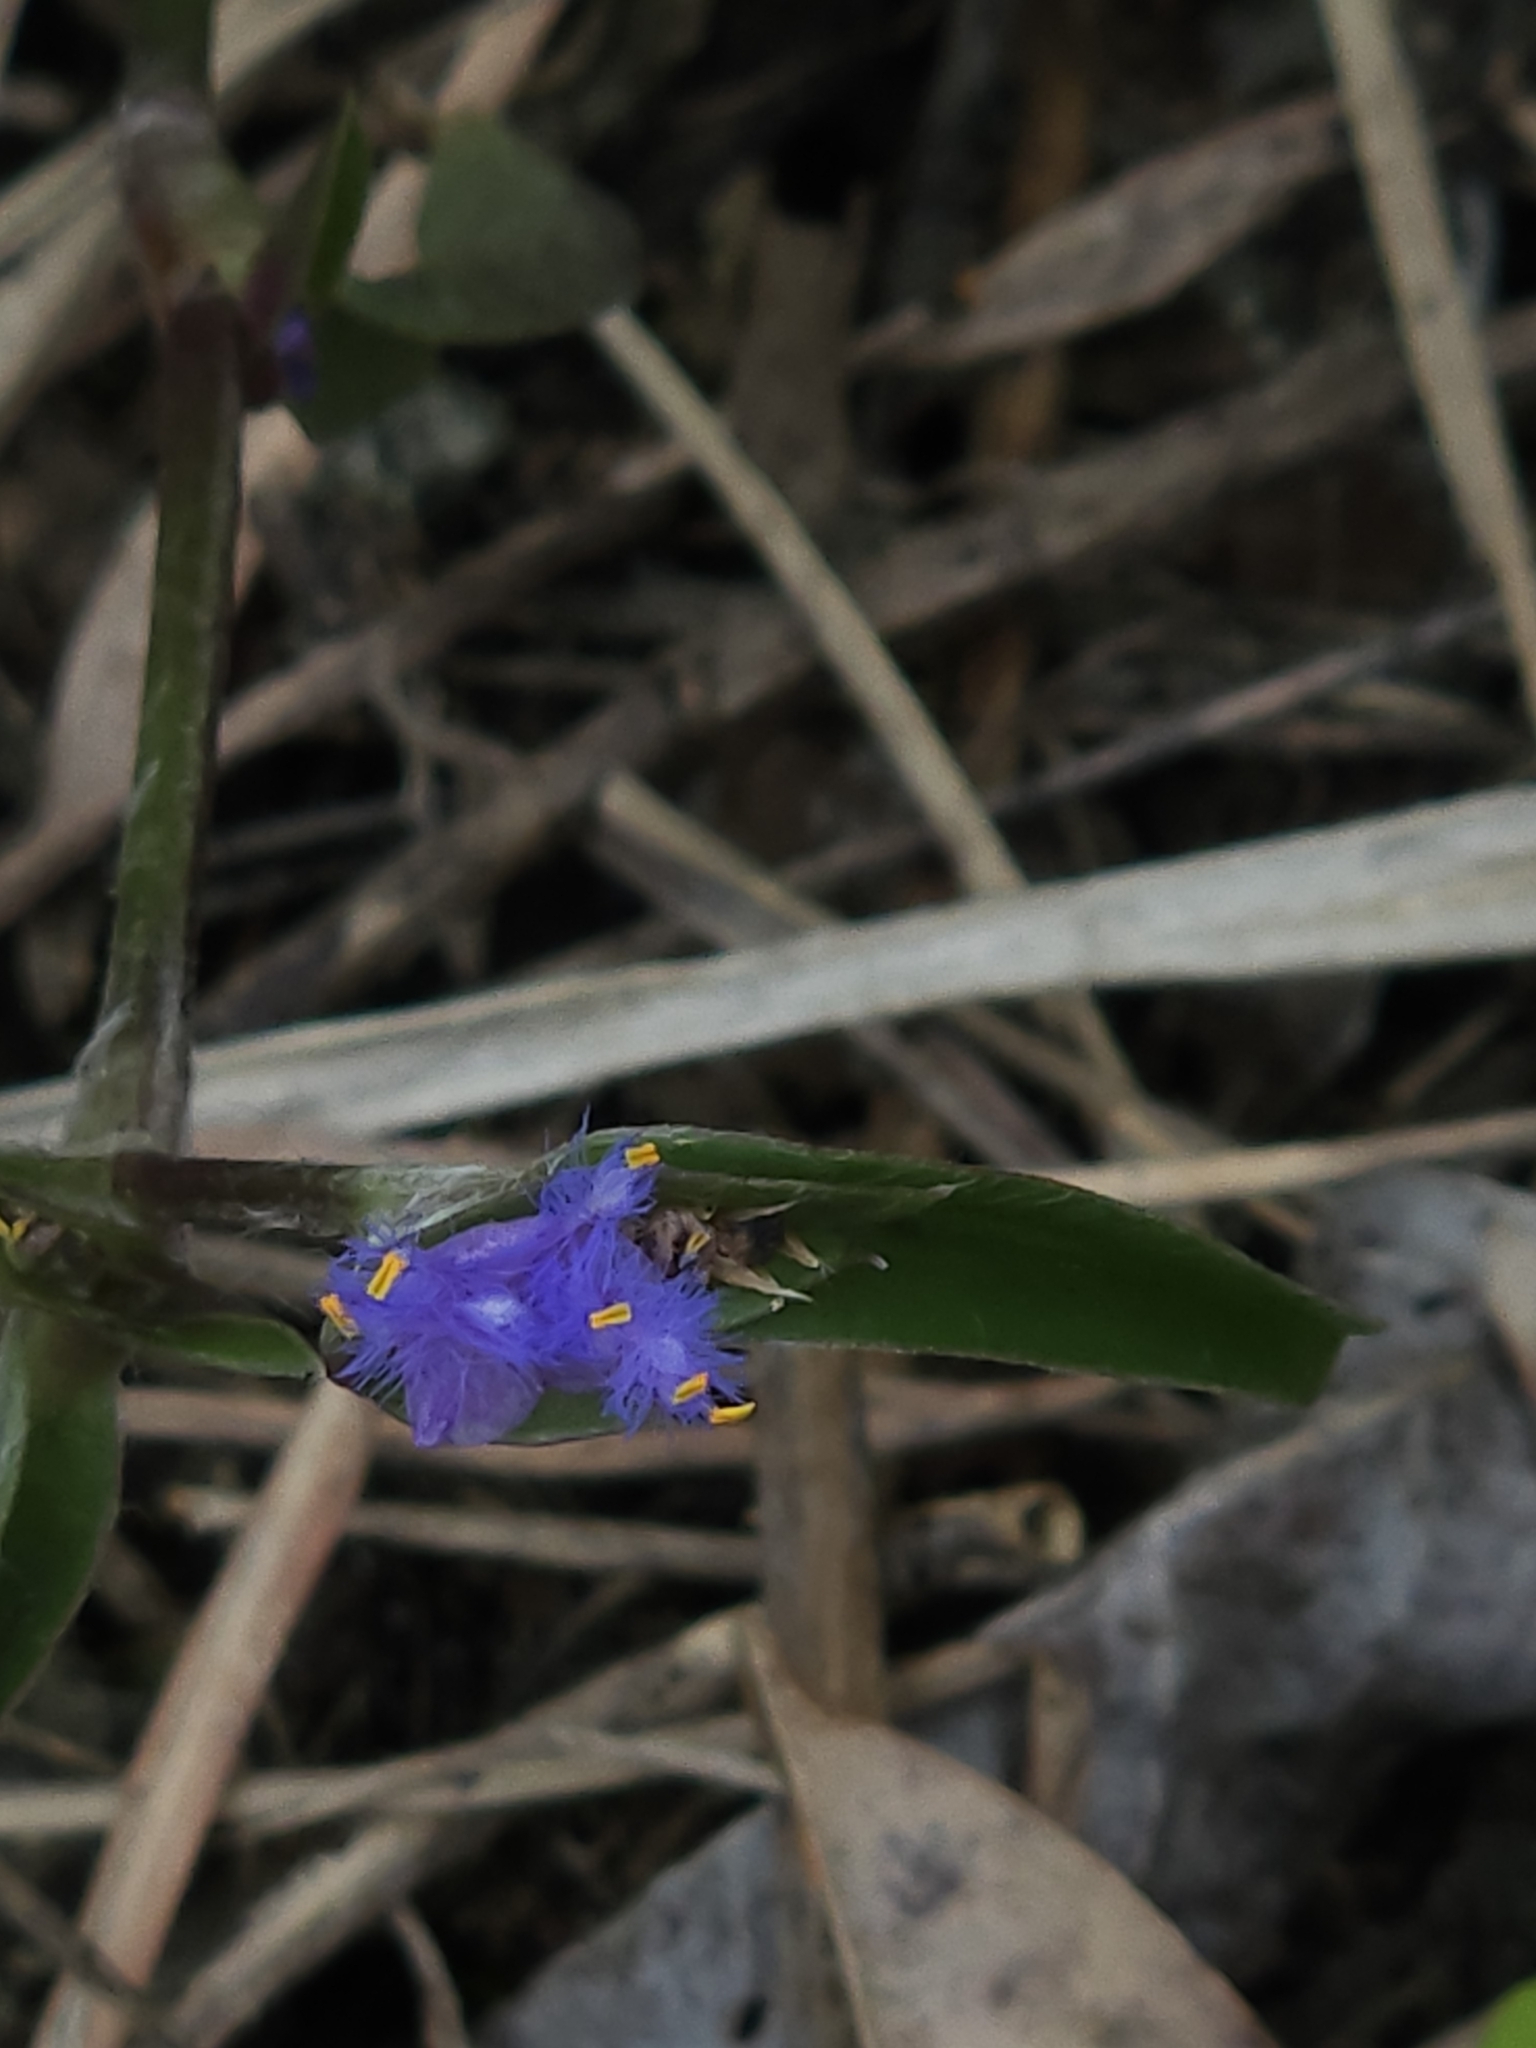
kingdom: Plantae
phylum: Tracheophyta
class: Liliopsida
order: Commelinales
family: Commelinaceae
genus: Cyanotis
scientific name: Cyanotis arachnoidea
